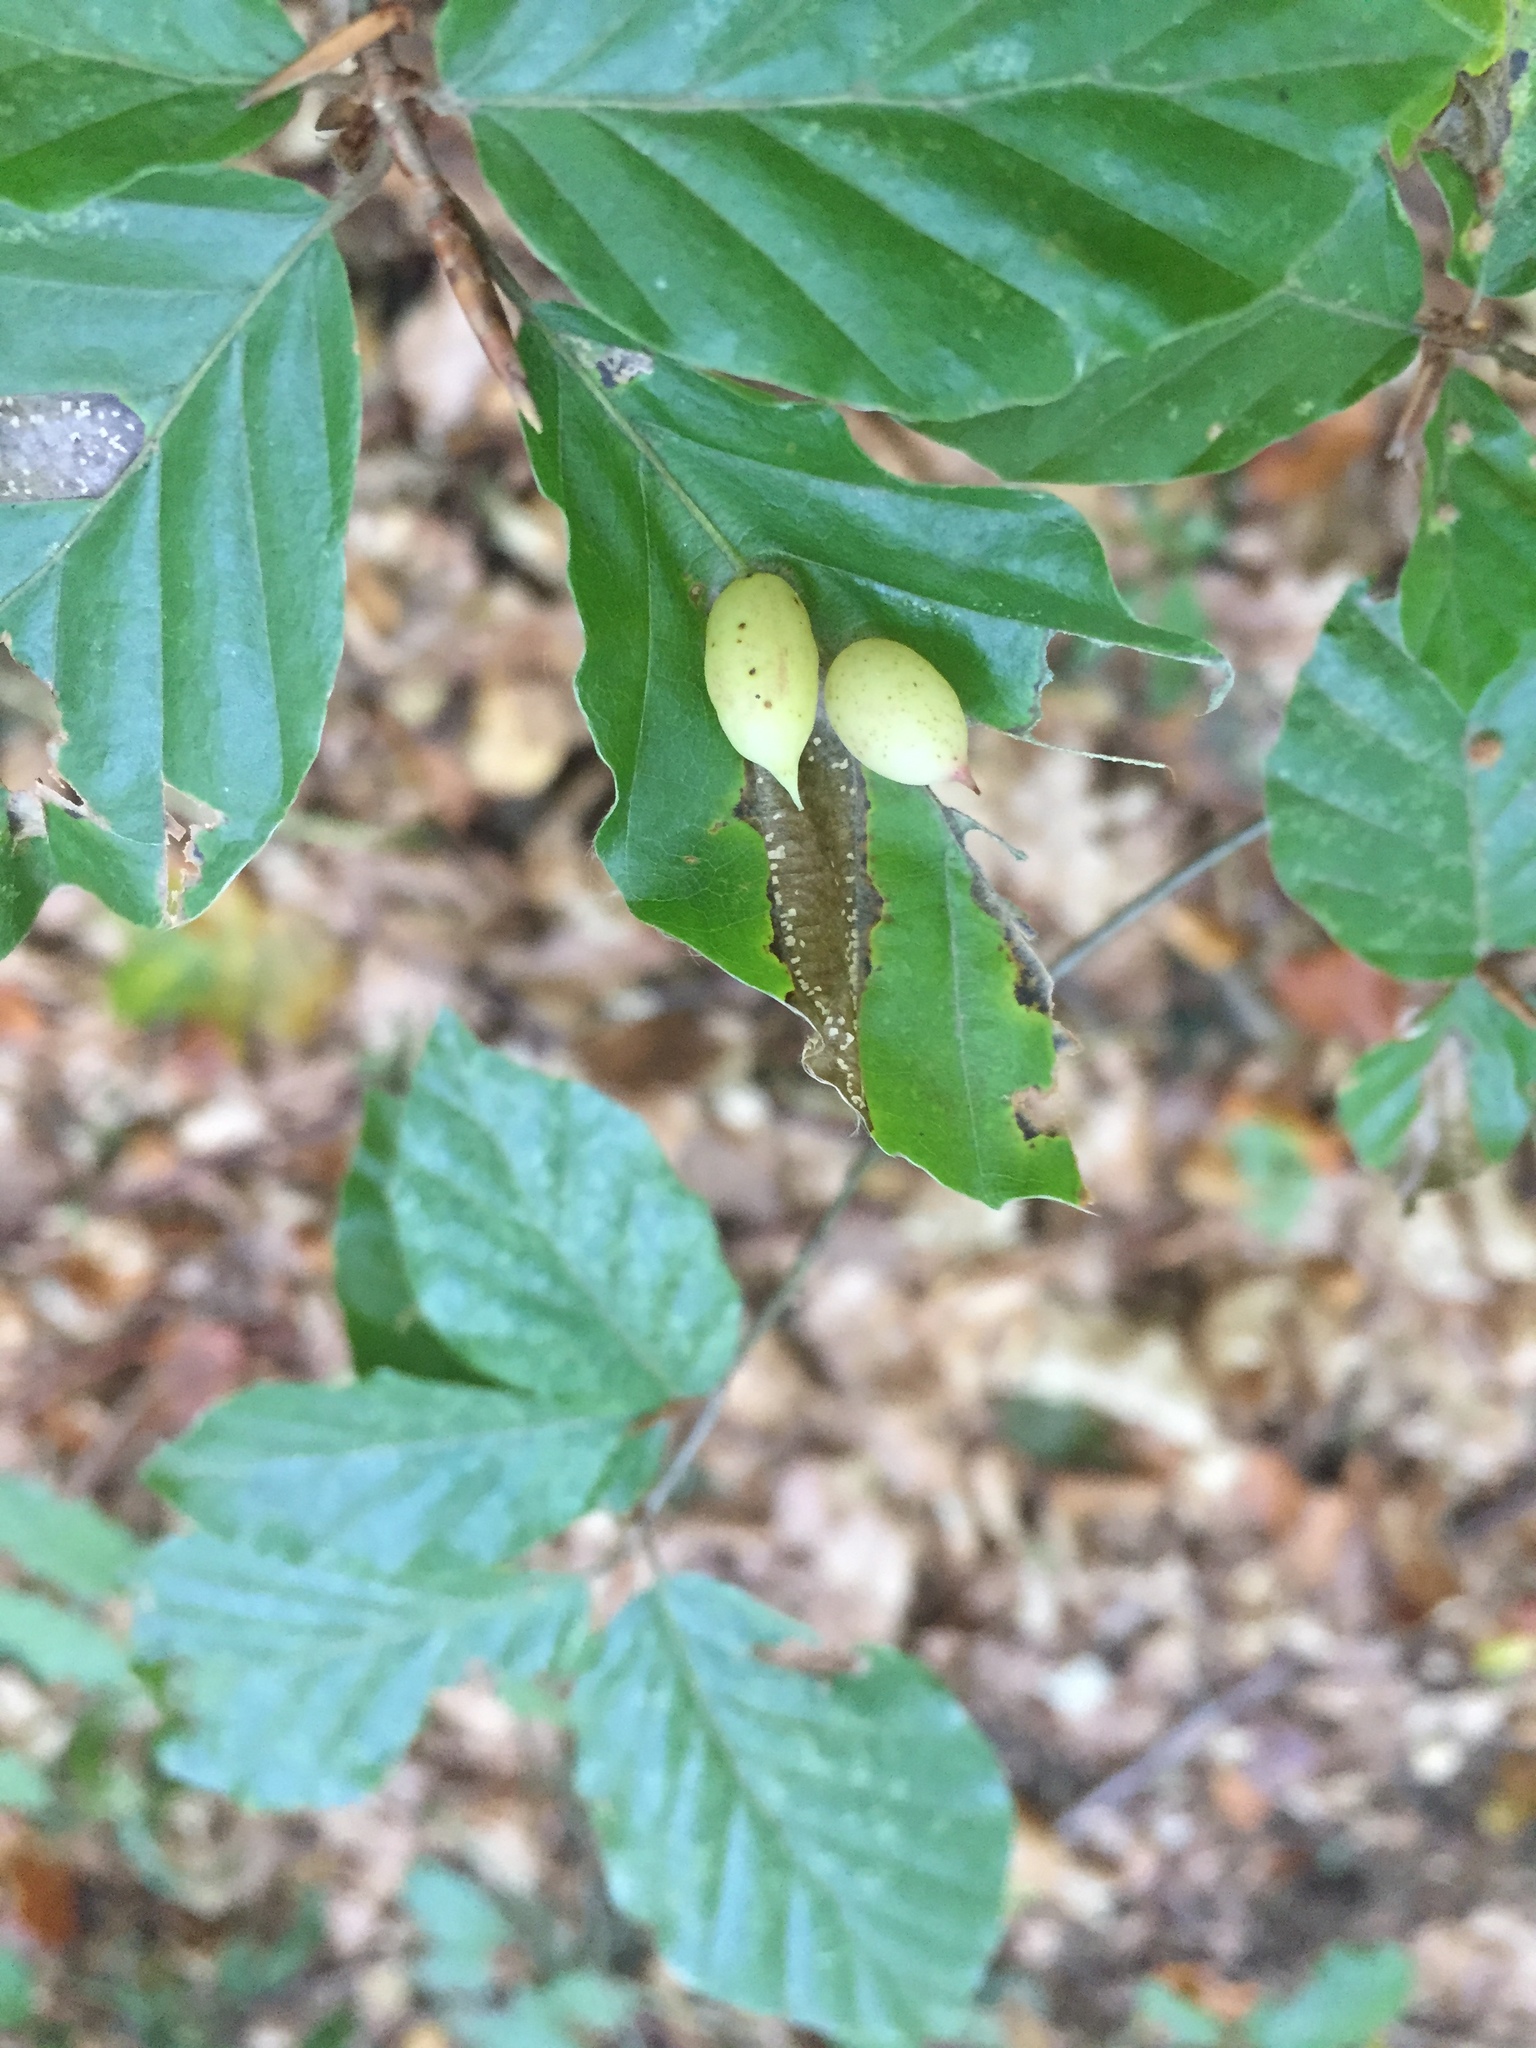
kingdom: Animalia
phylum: Arthropoda
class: Insecta
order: Diptera
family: Cecidomyiidae
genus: Mikiola
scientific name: Mikiola fagi
